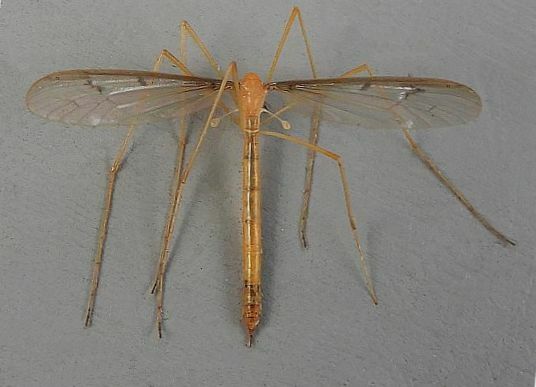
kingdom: Animalia
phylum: Arthropoda
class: Insecta
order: Diptera
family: Pediciidae
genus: Tricyphona
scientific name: Tricyphona inconstans
